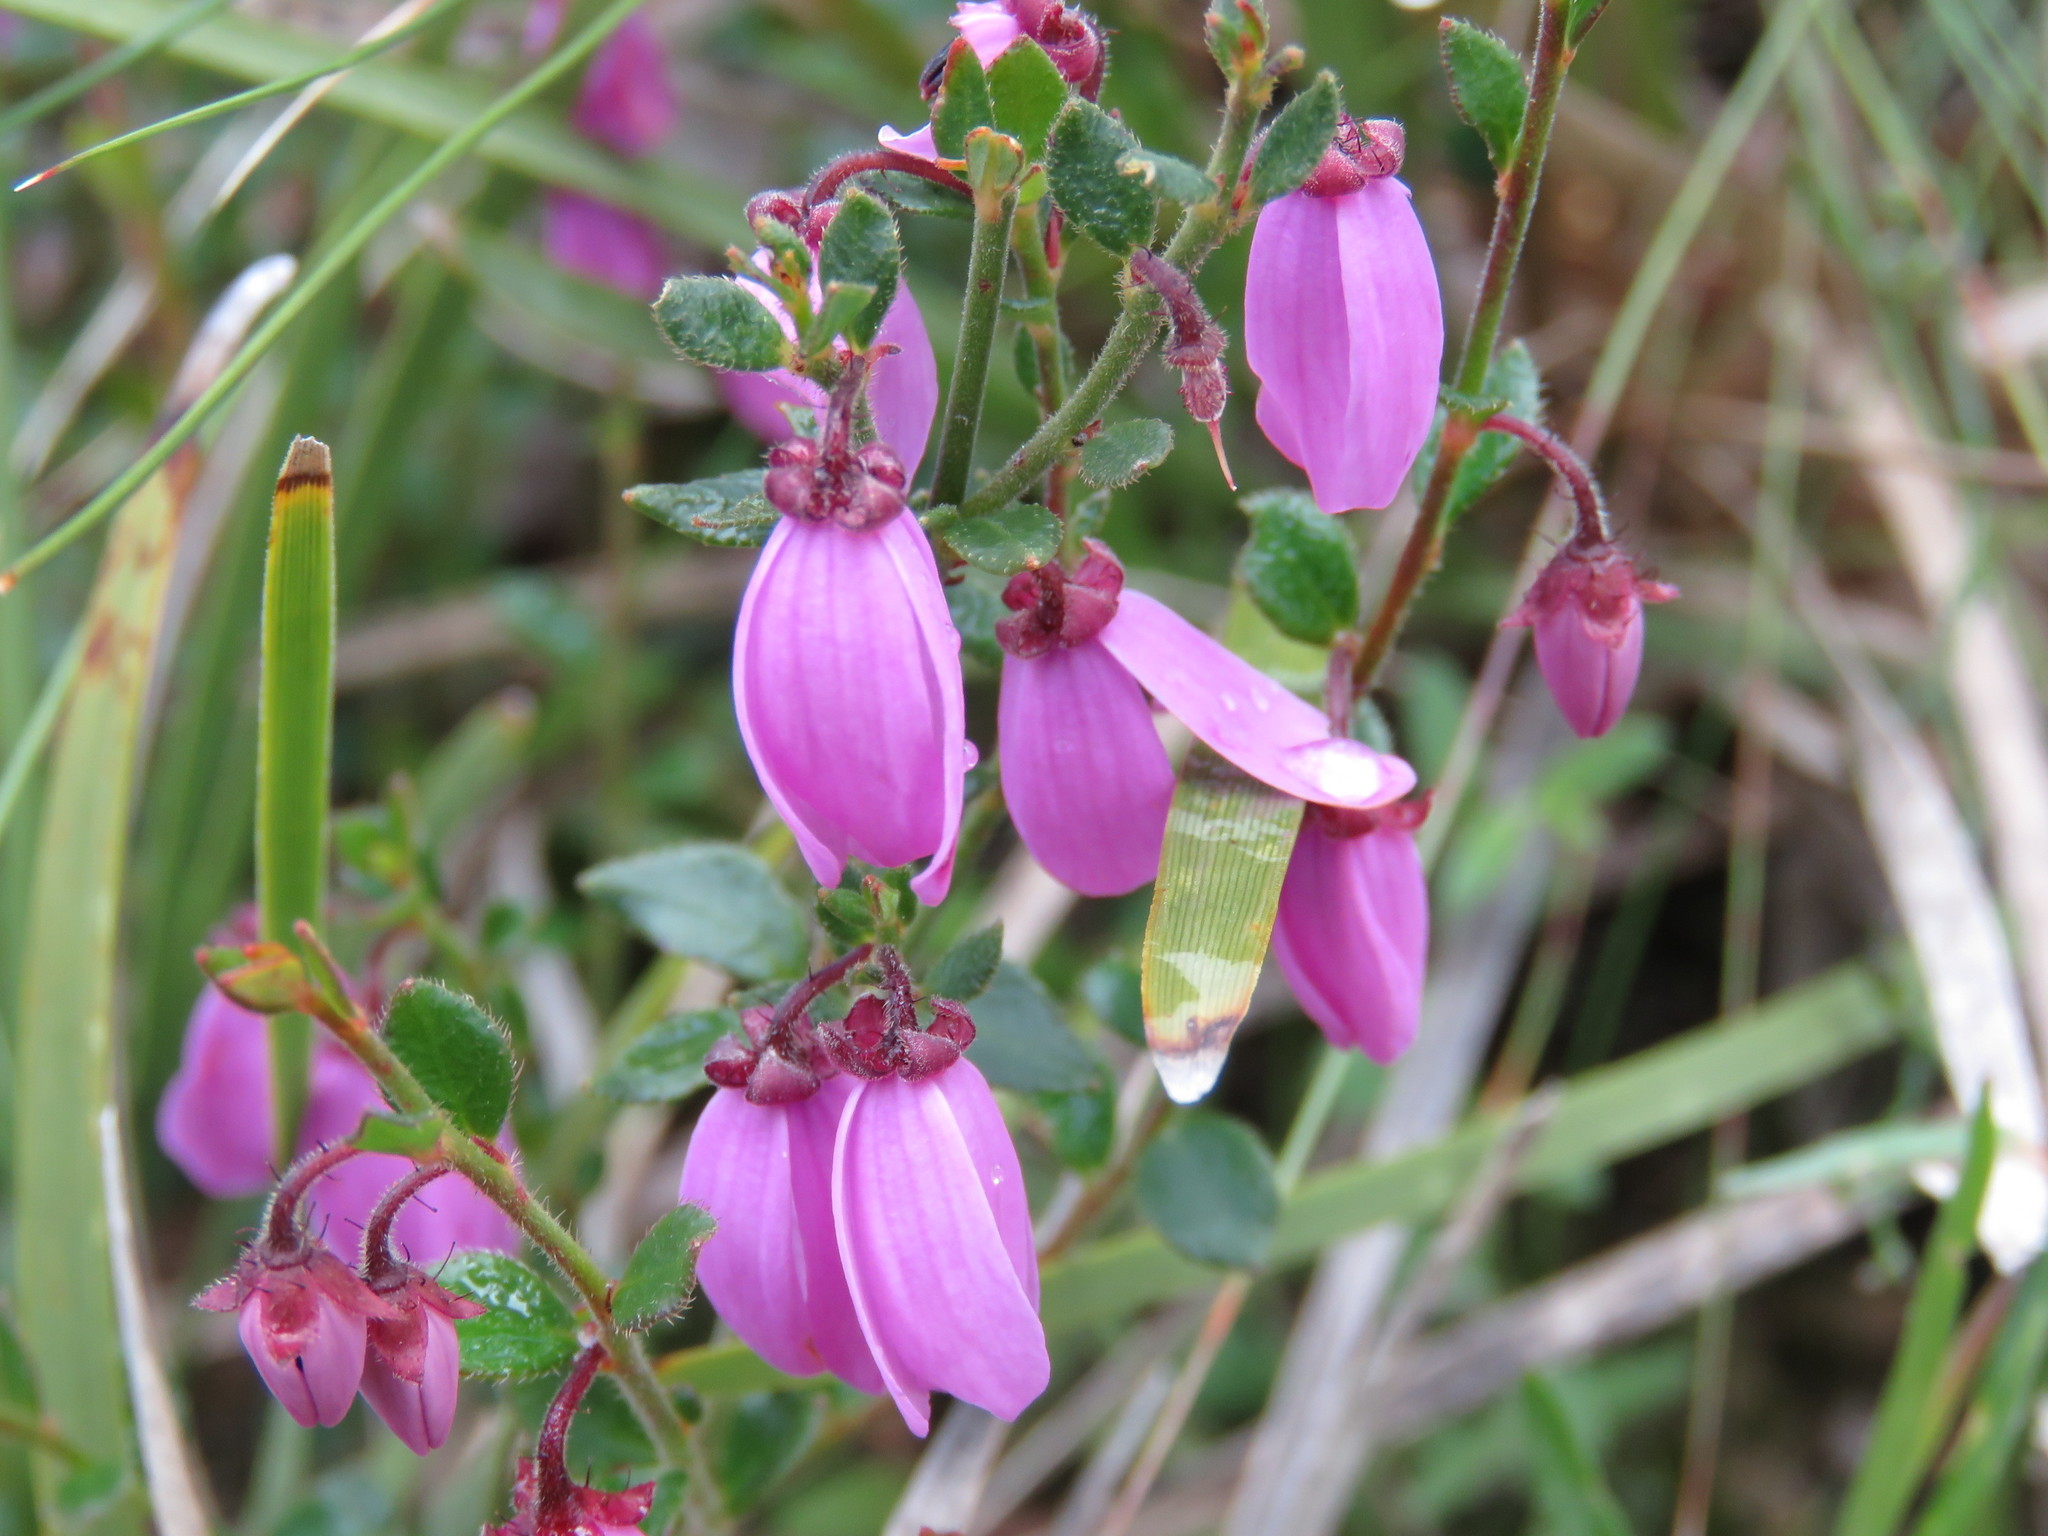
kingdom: Plantae
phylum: Tracheophyta
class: Magnoliopsida
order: Oxalidales
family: Elaeocarpaceae
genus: Tetratheca
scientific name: Tetratheca ciliata
